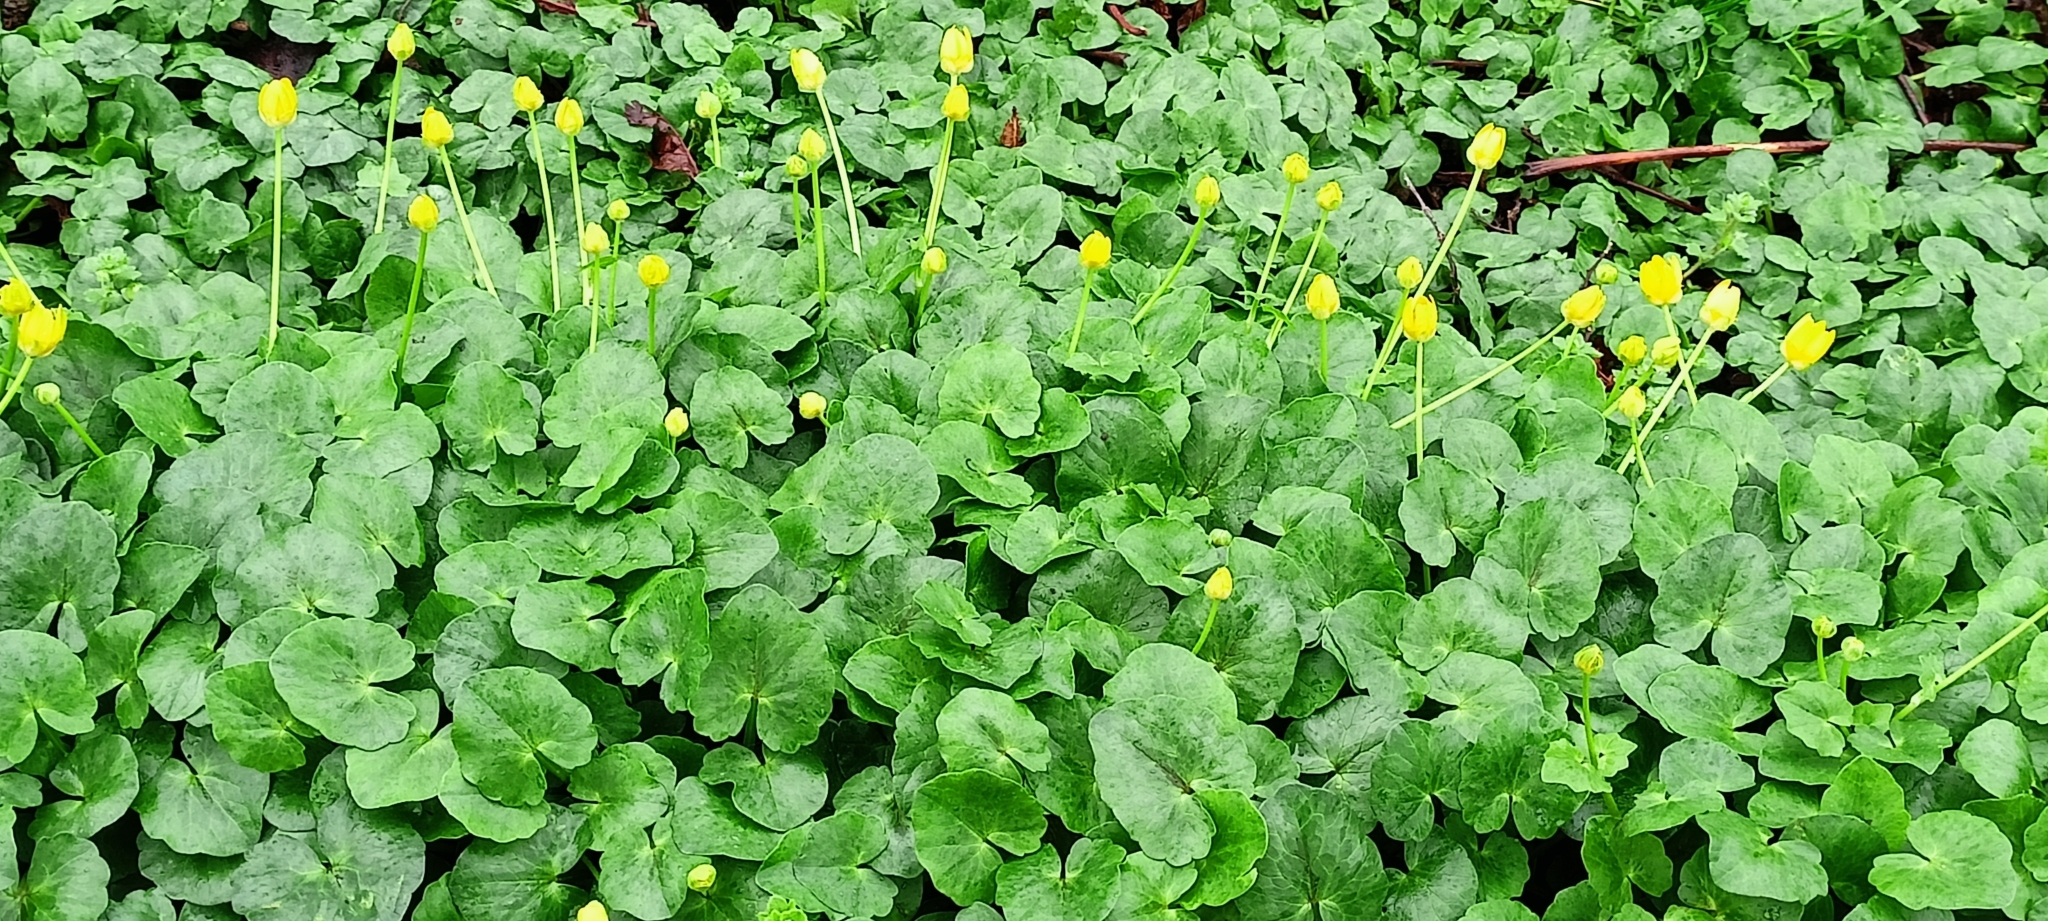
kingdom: Plantae
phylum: Tracheophyta
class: Magnoliopsida
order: Ranunculales
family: Ranunculaceae
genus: Ficaria
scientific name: Ficaria verna
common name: Lesser celandine
